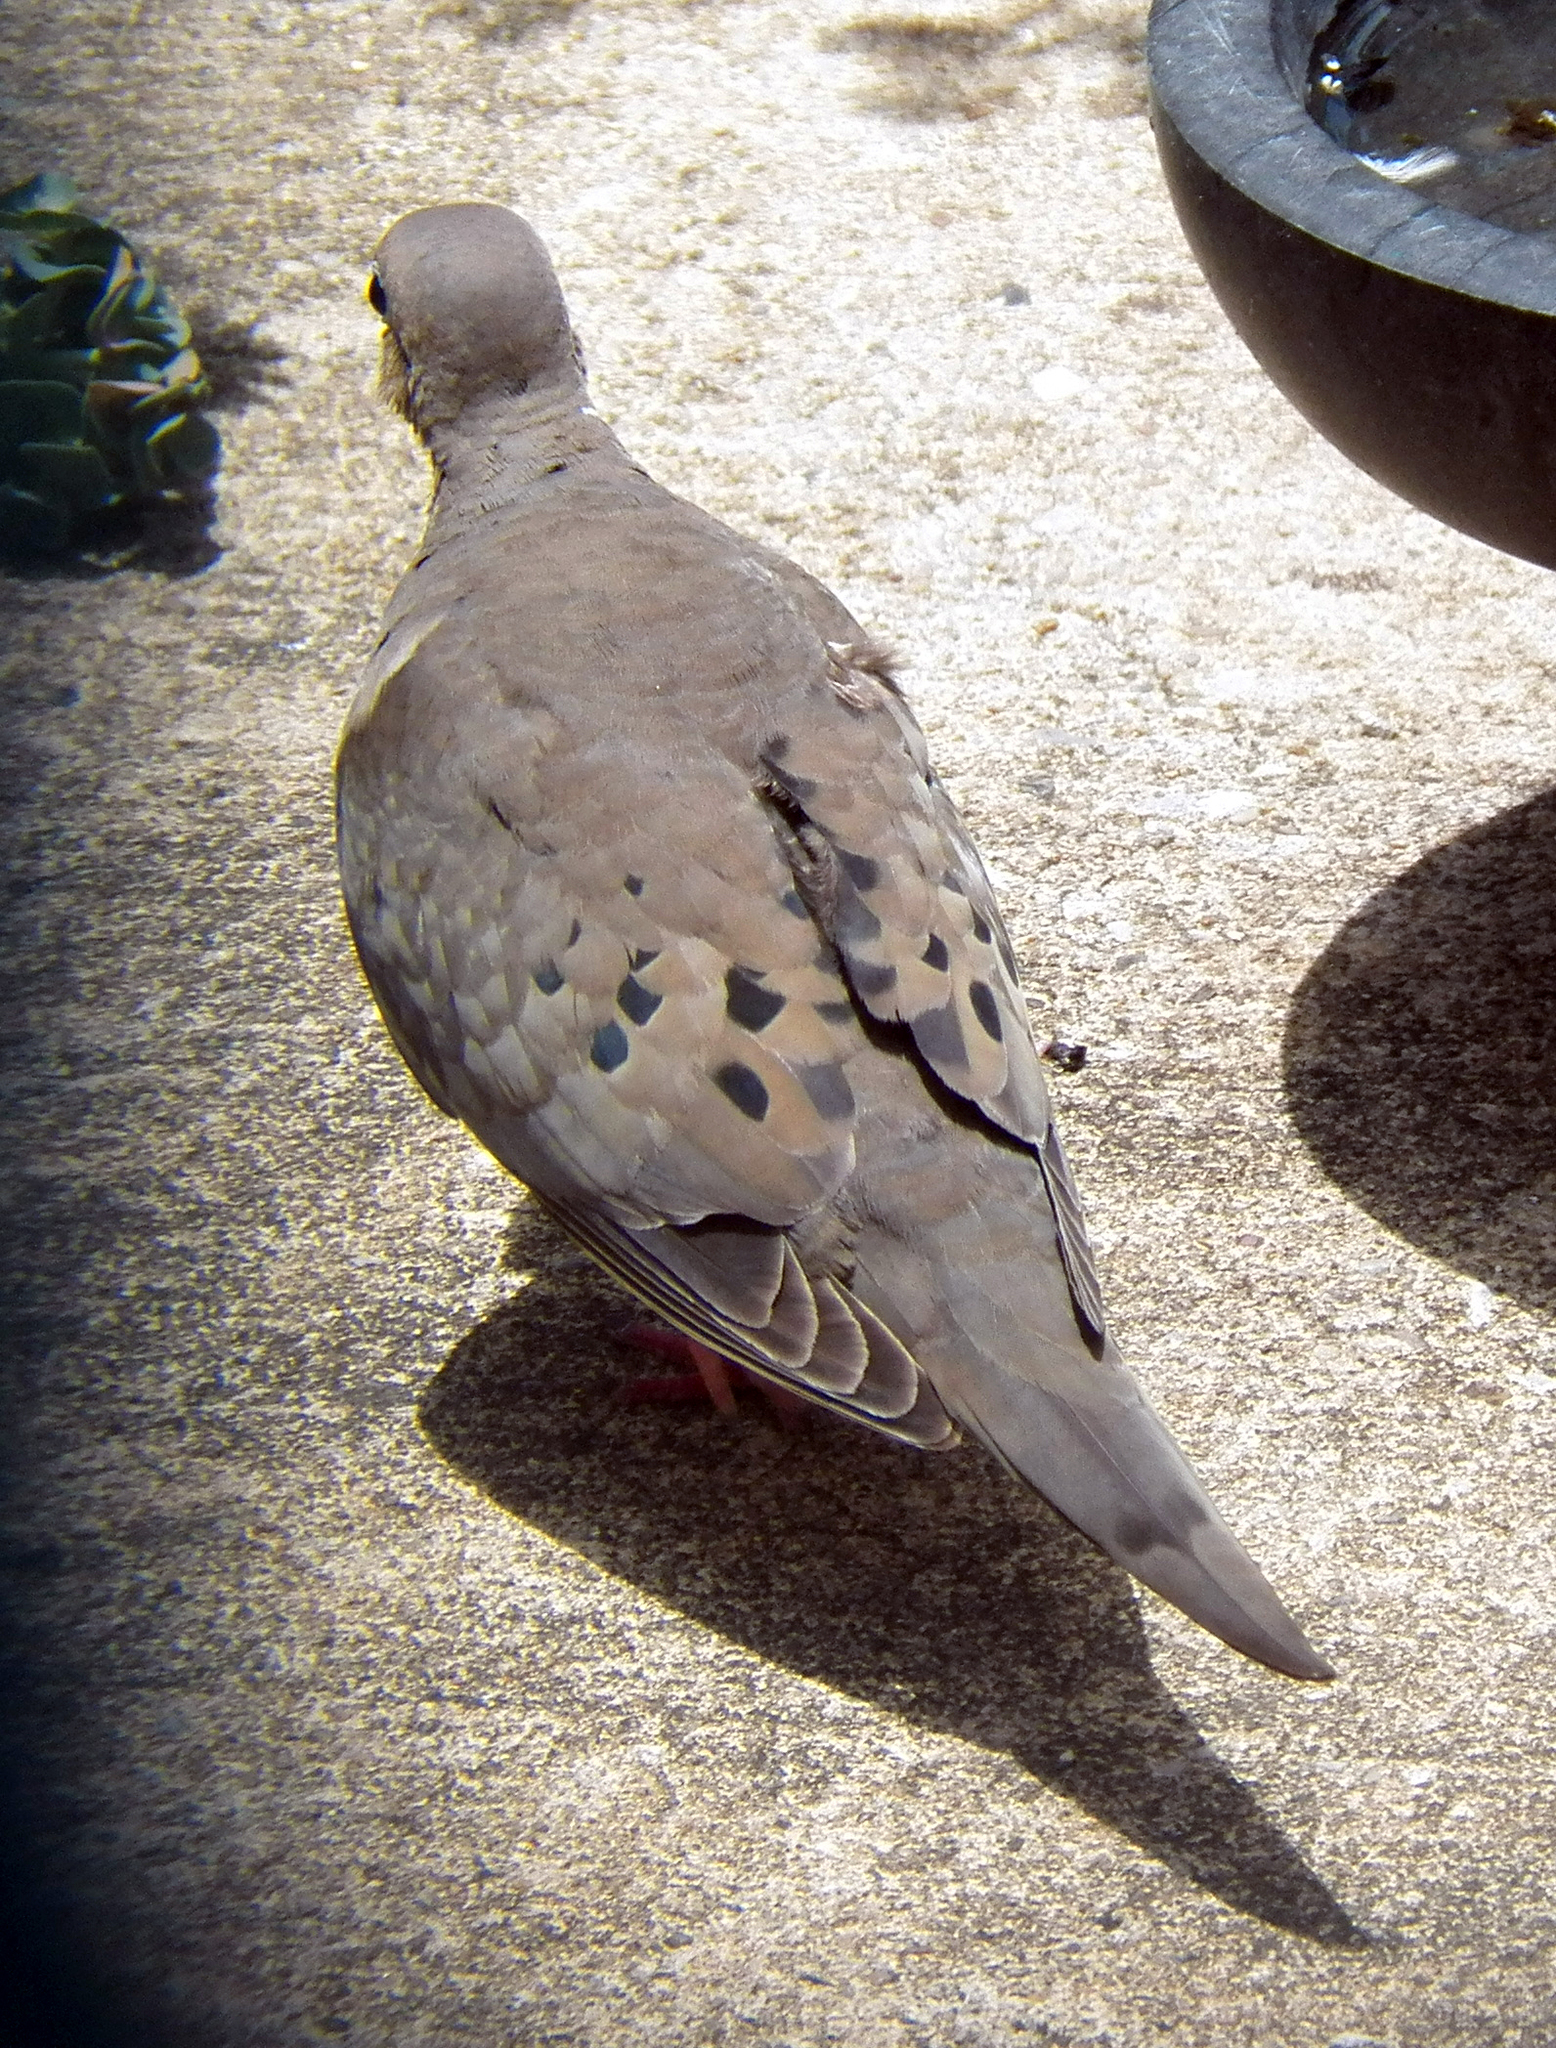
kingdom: Animalia
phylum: Chordata
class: Aves
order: Columbiformes
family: Columbidae
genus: Zenaida
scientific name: Zenaida macroura
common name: Mourning dove
